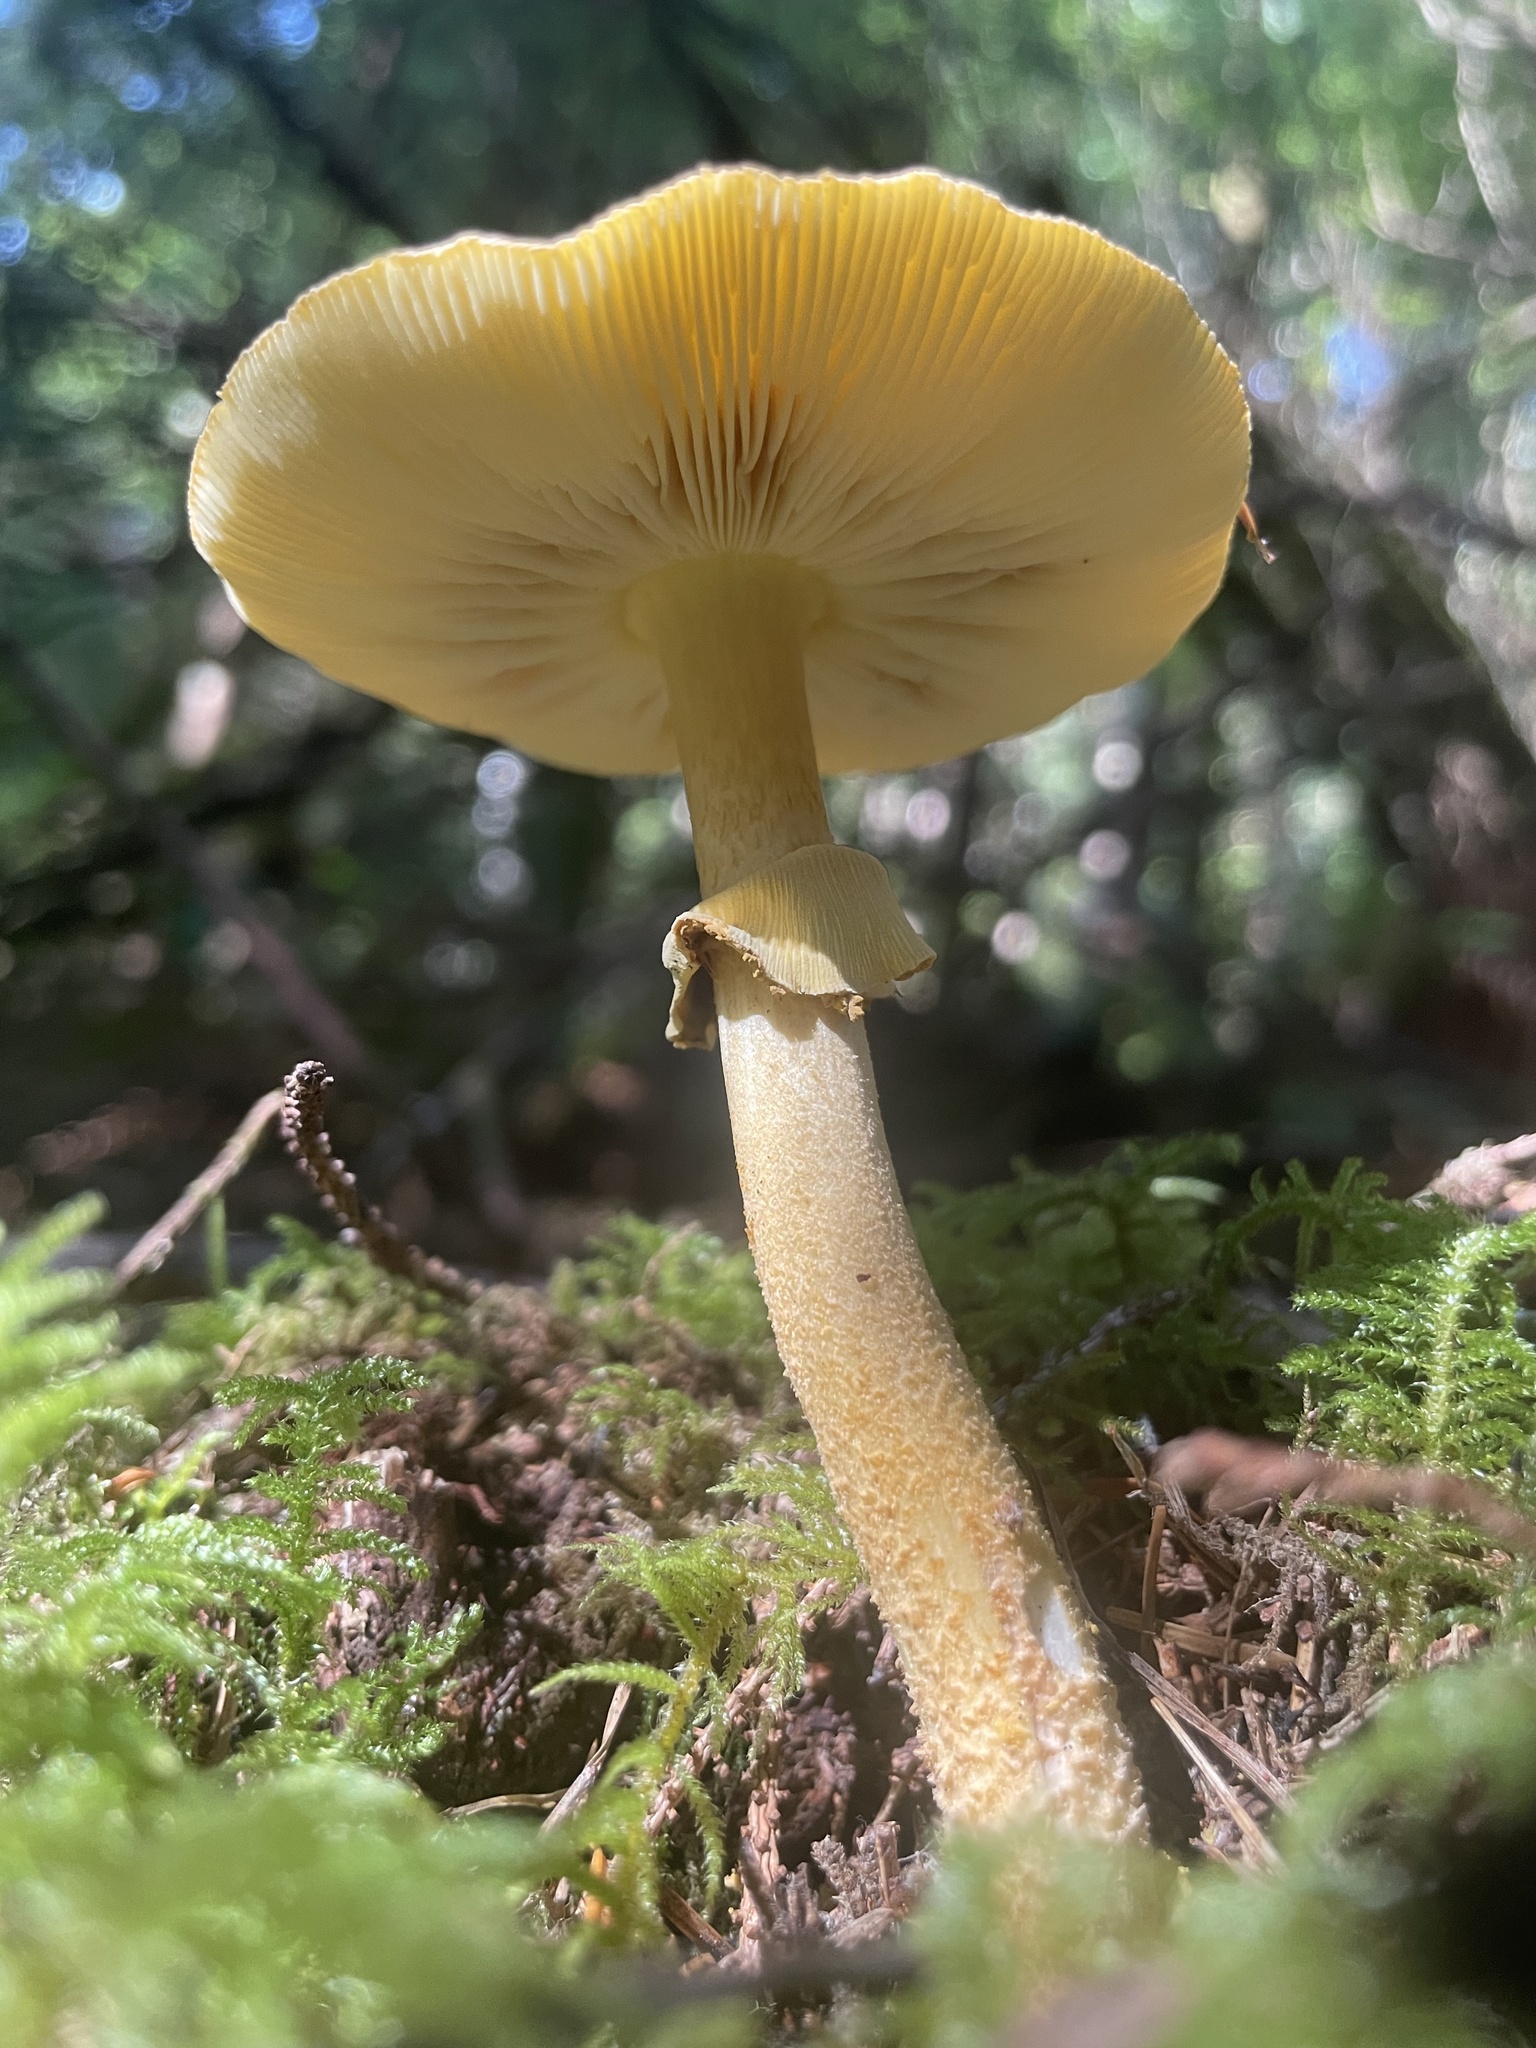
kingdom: Fungi
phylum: Basidiomycota
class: Agaricomycetes
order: Agaricales
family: Amanitaceae
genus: Amanita
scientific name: Amanita augusta
